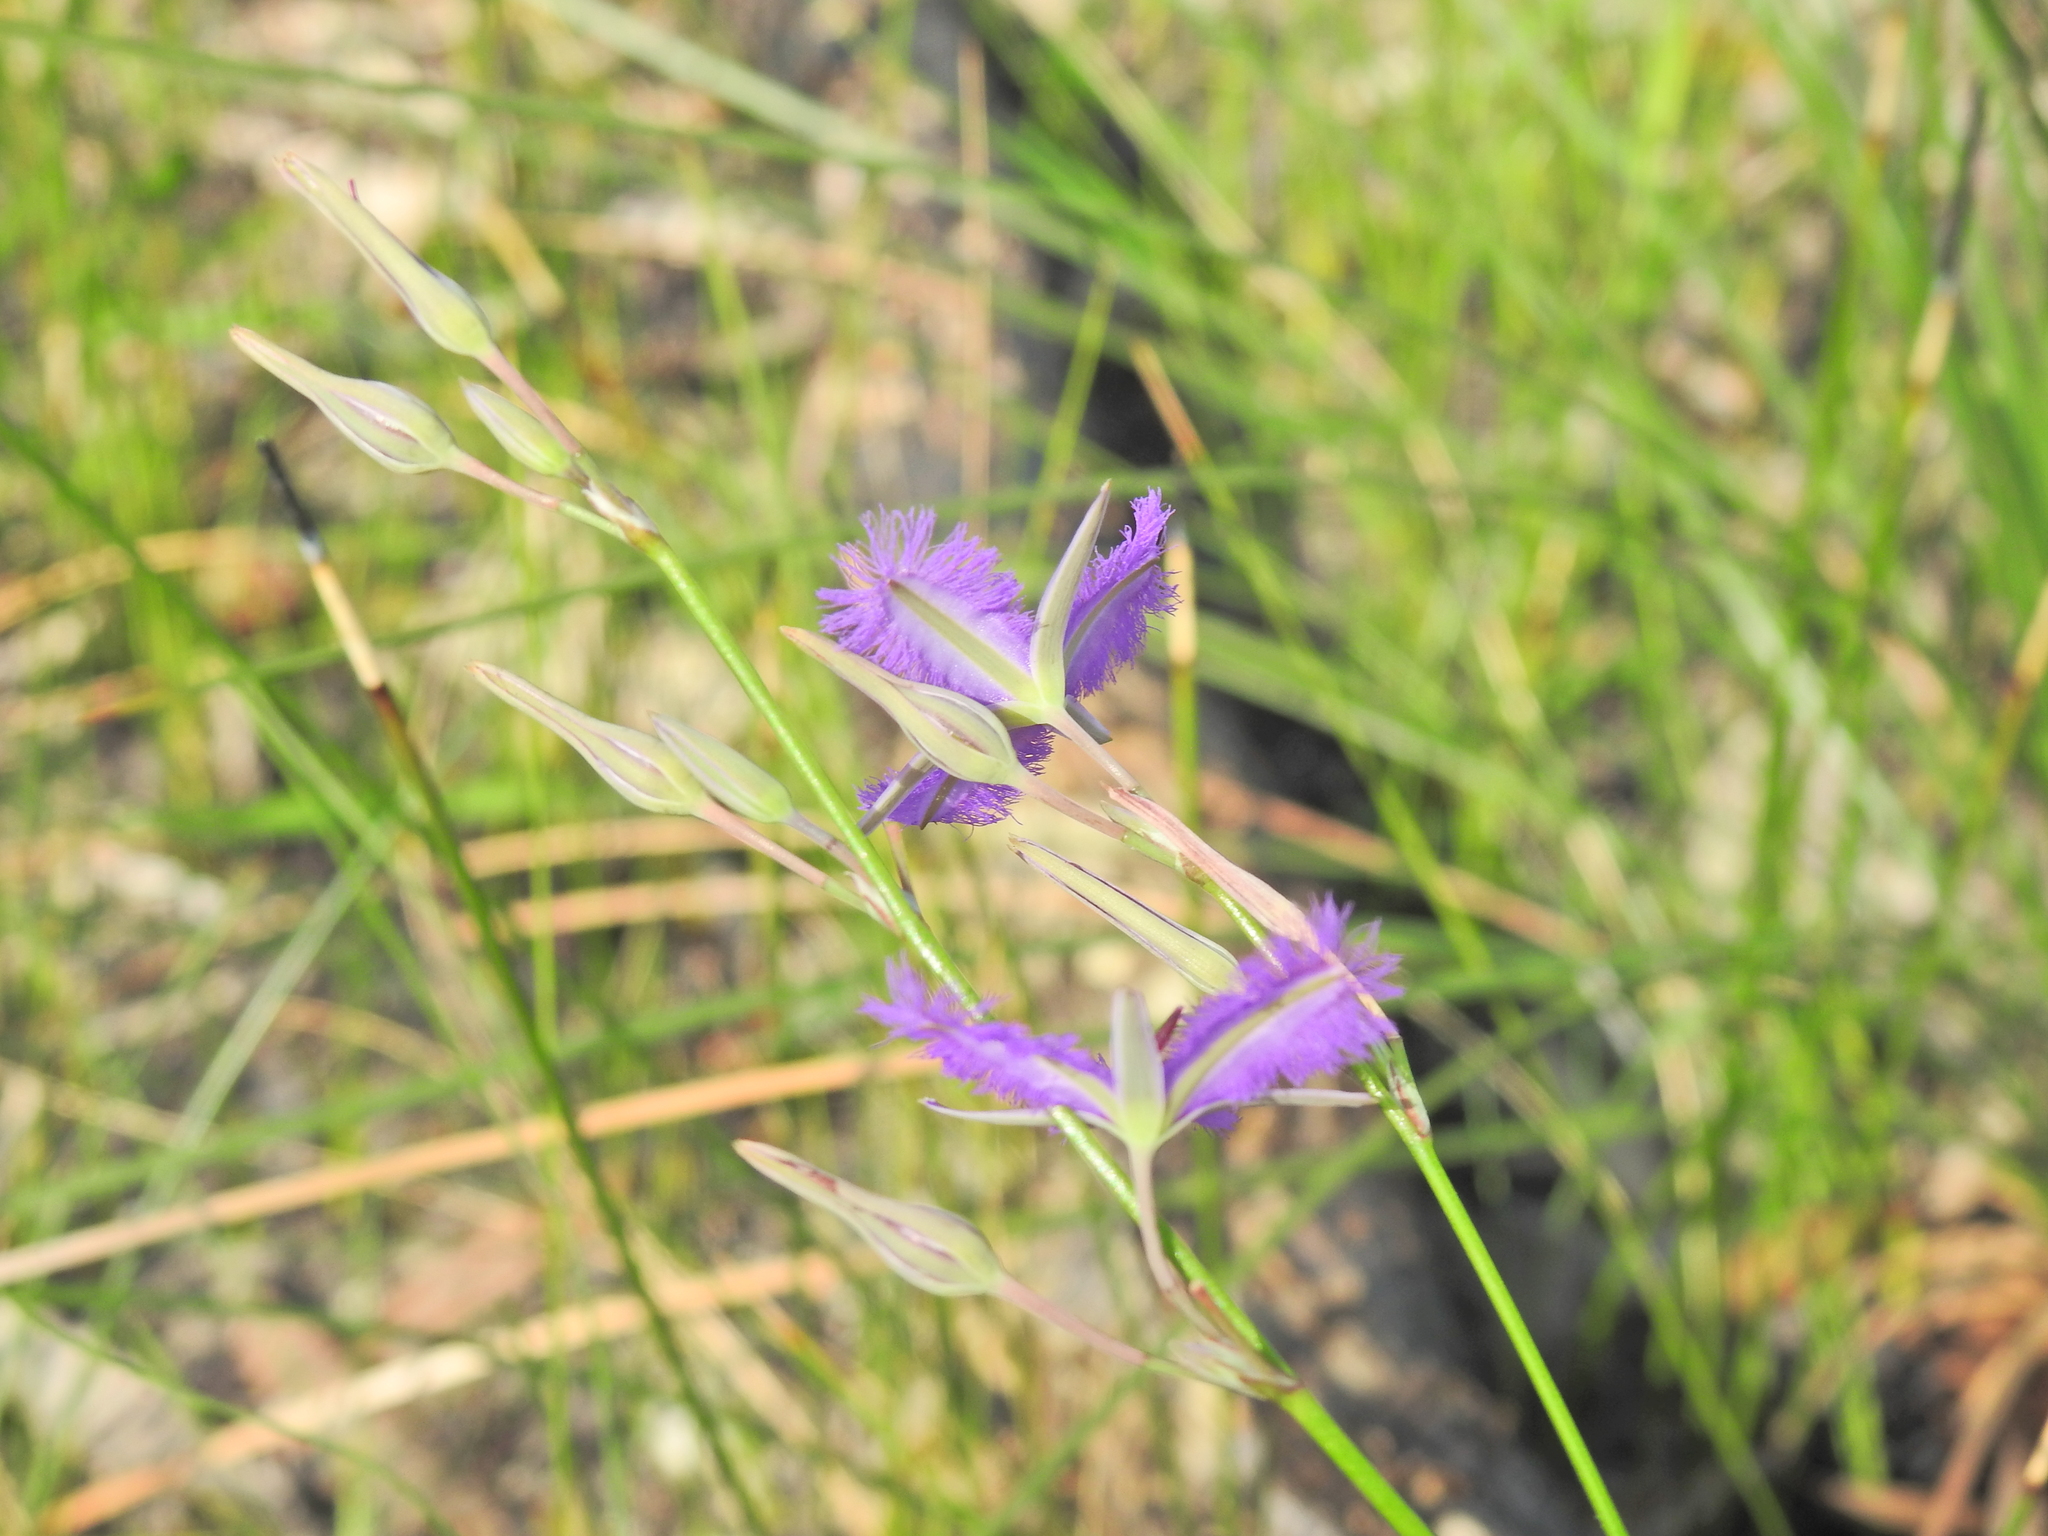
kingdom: Plantae
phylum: Tracheophyta
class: Liliopsida
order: Asparagales
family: Asparagaceae
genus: Thysanotus
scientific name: Thysanotus tuberosus
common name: Common fringed-lily
